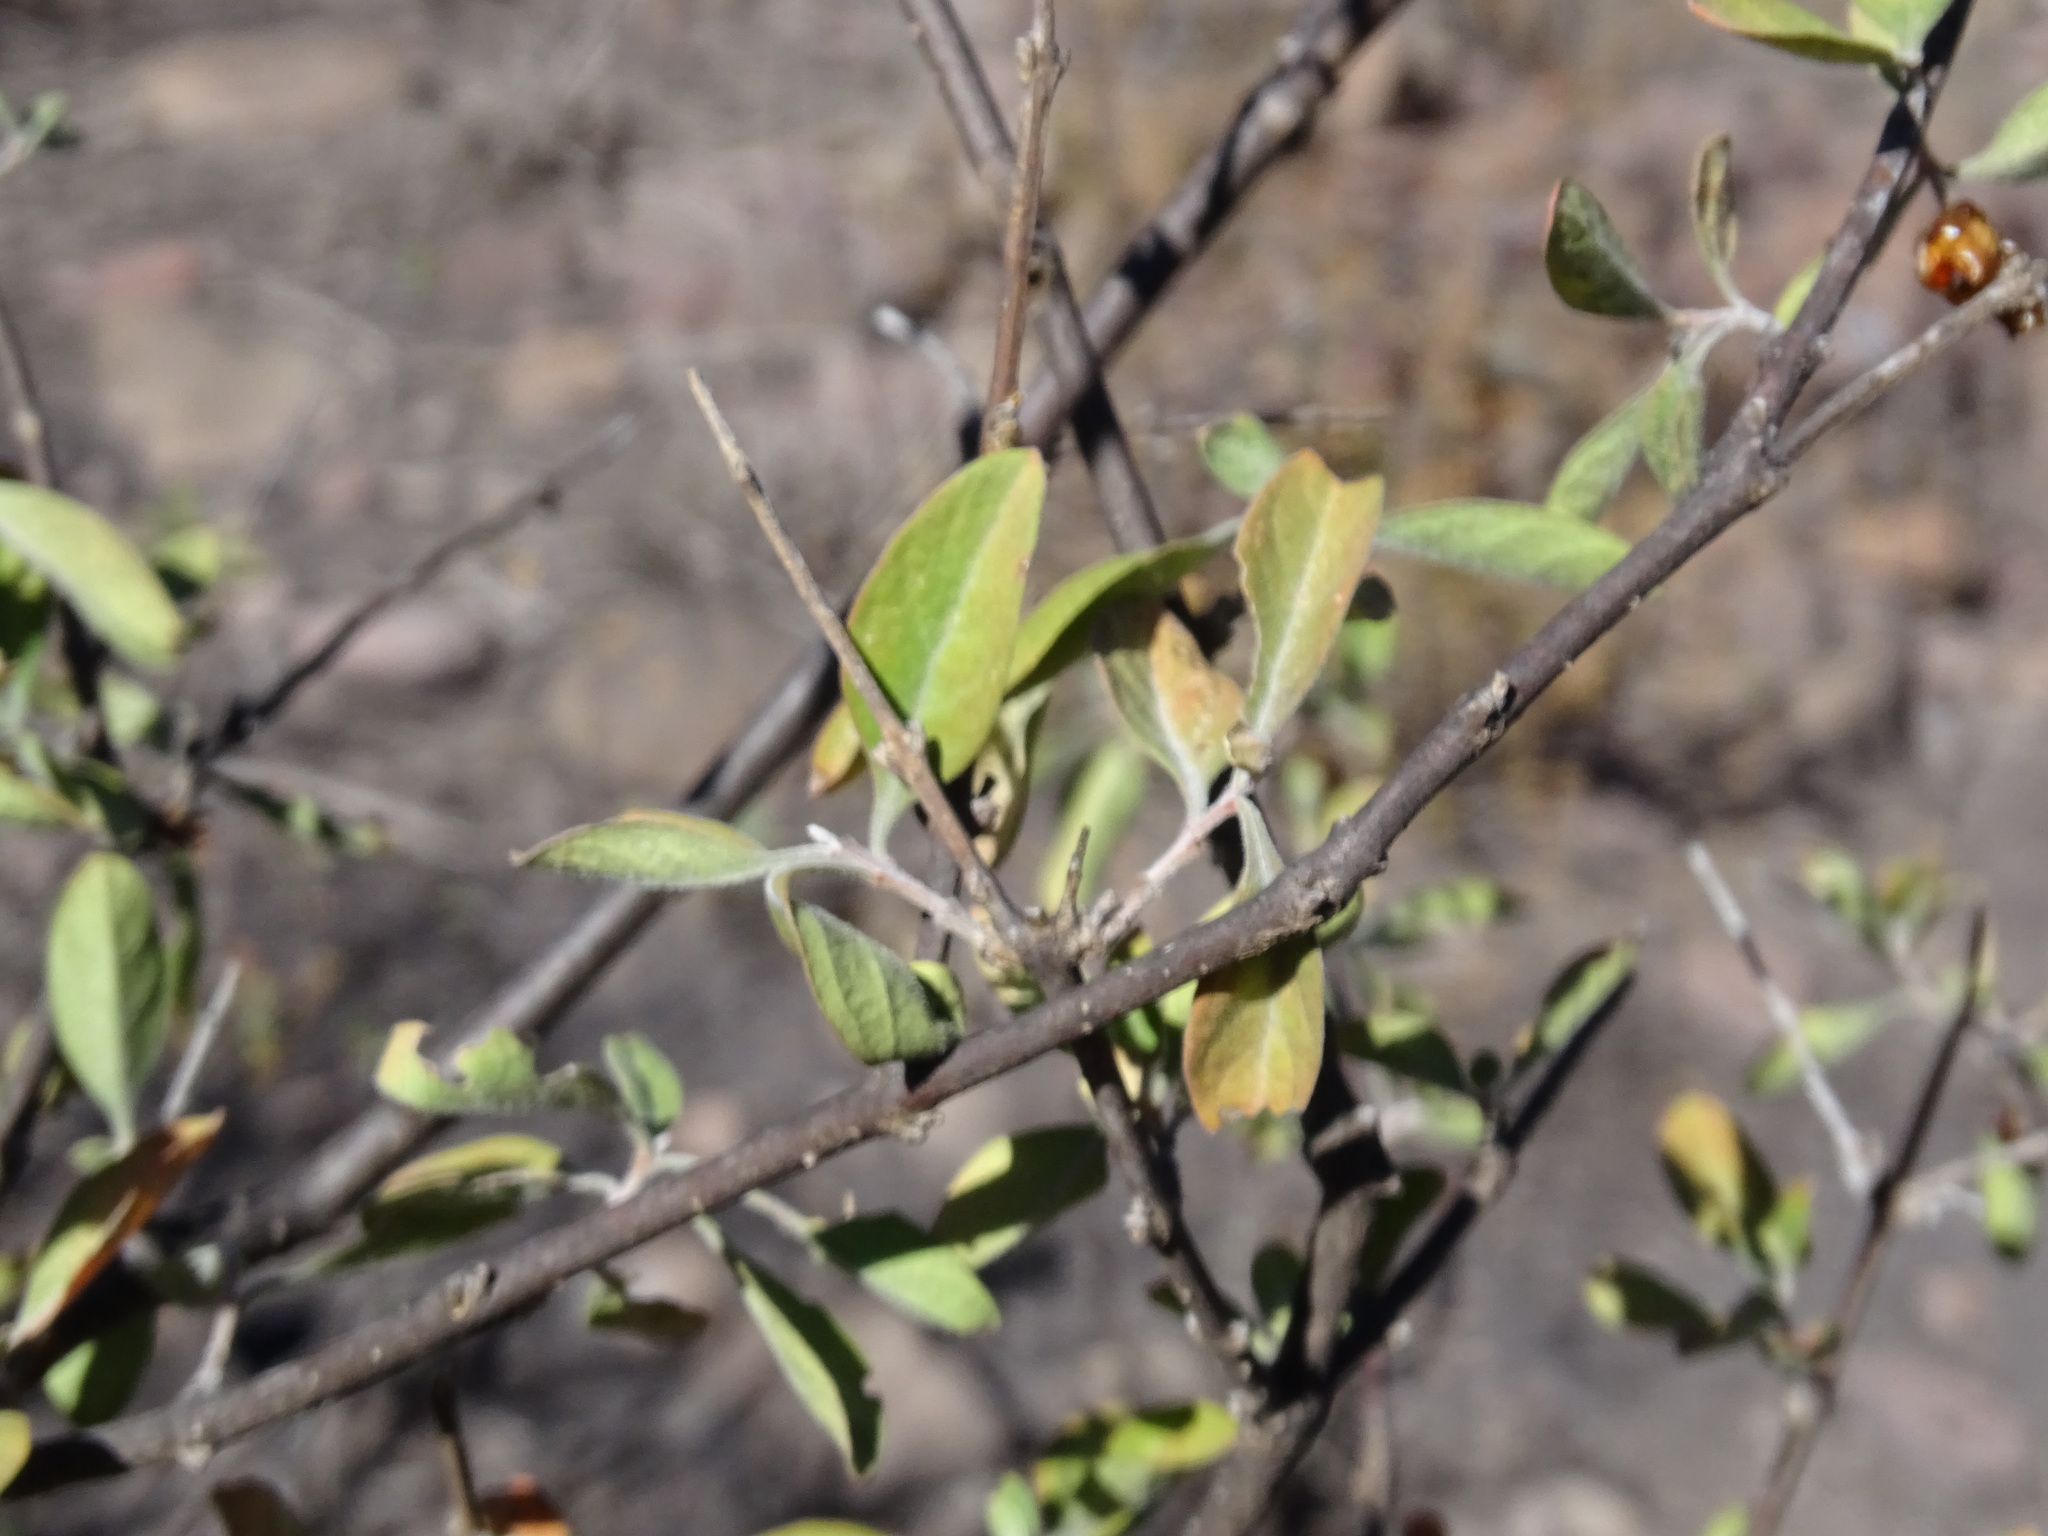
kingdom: Plantae
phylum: Tracheophyta
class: Magnoliopsida
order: Lamiales
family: Verbenaceae
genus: Citharexylum
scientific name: Citharexylum racemosum
